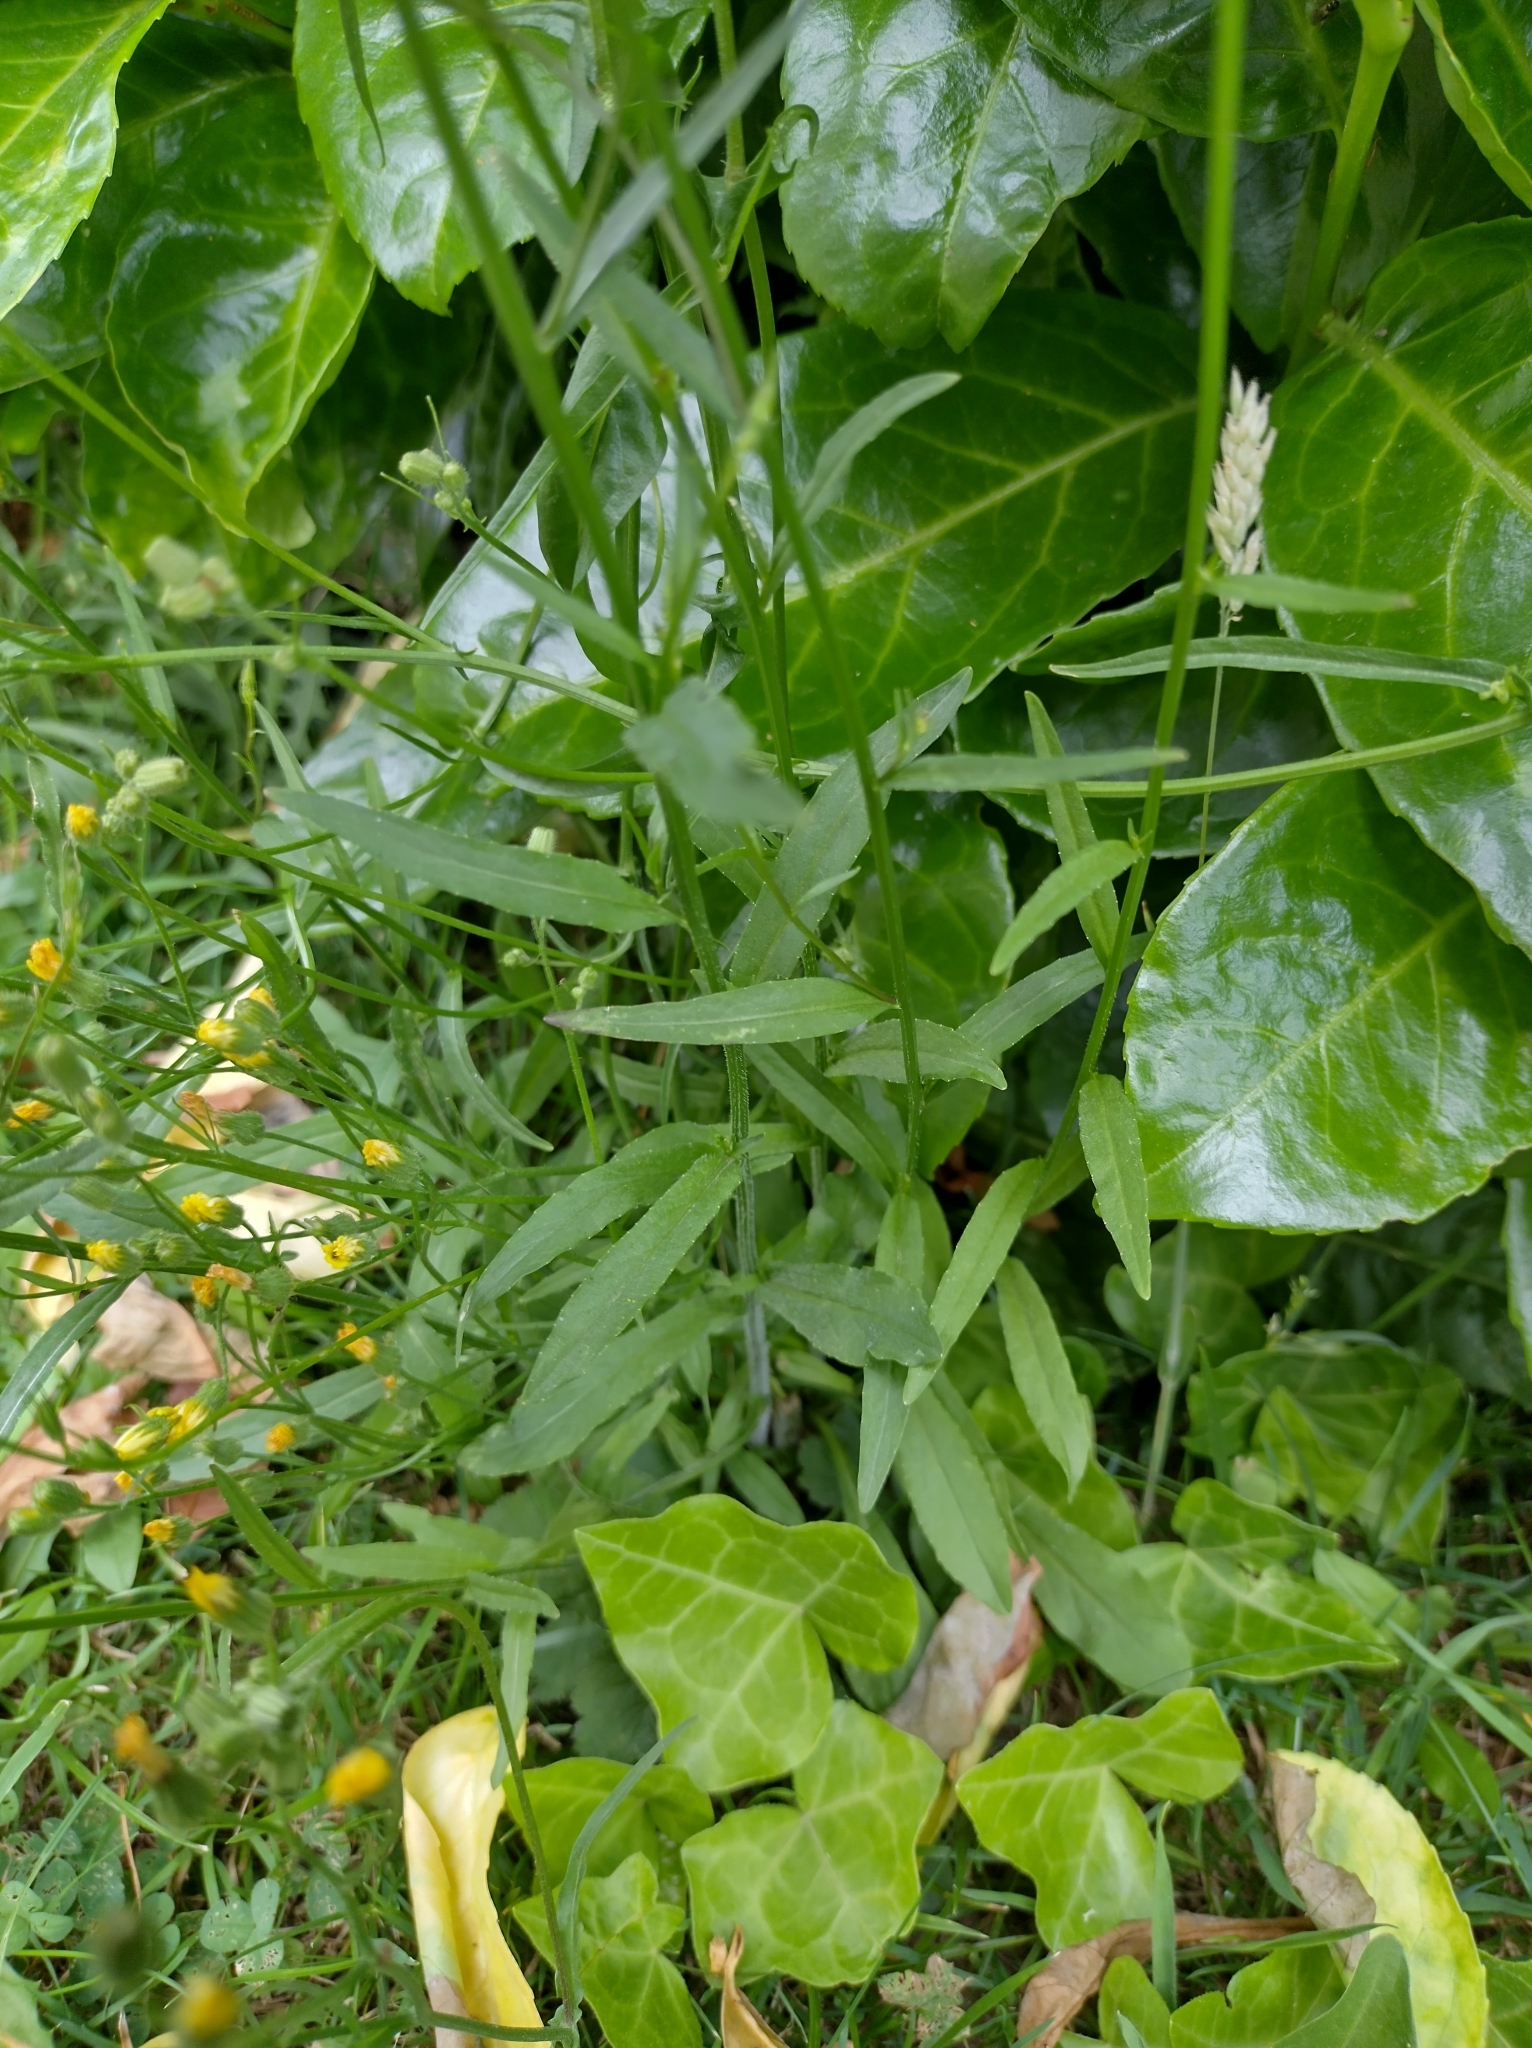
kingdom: Plantae
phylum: Tracheophyta
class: Magnoliopsida
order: Asterales
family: Campanulaceae
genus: Campanula
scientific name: Campanula rapunculus
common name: Rampion bellflower
